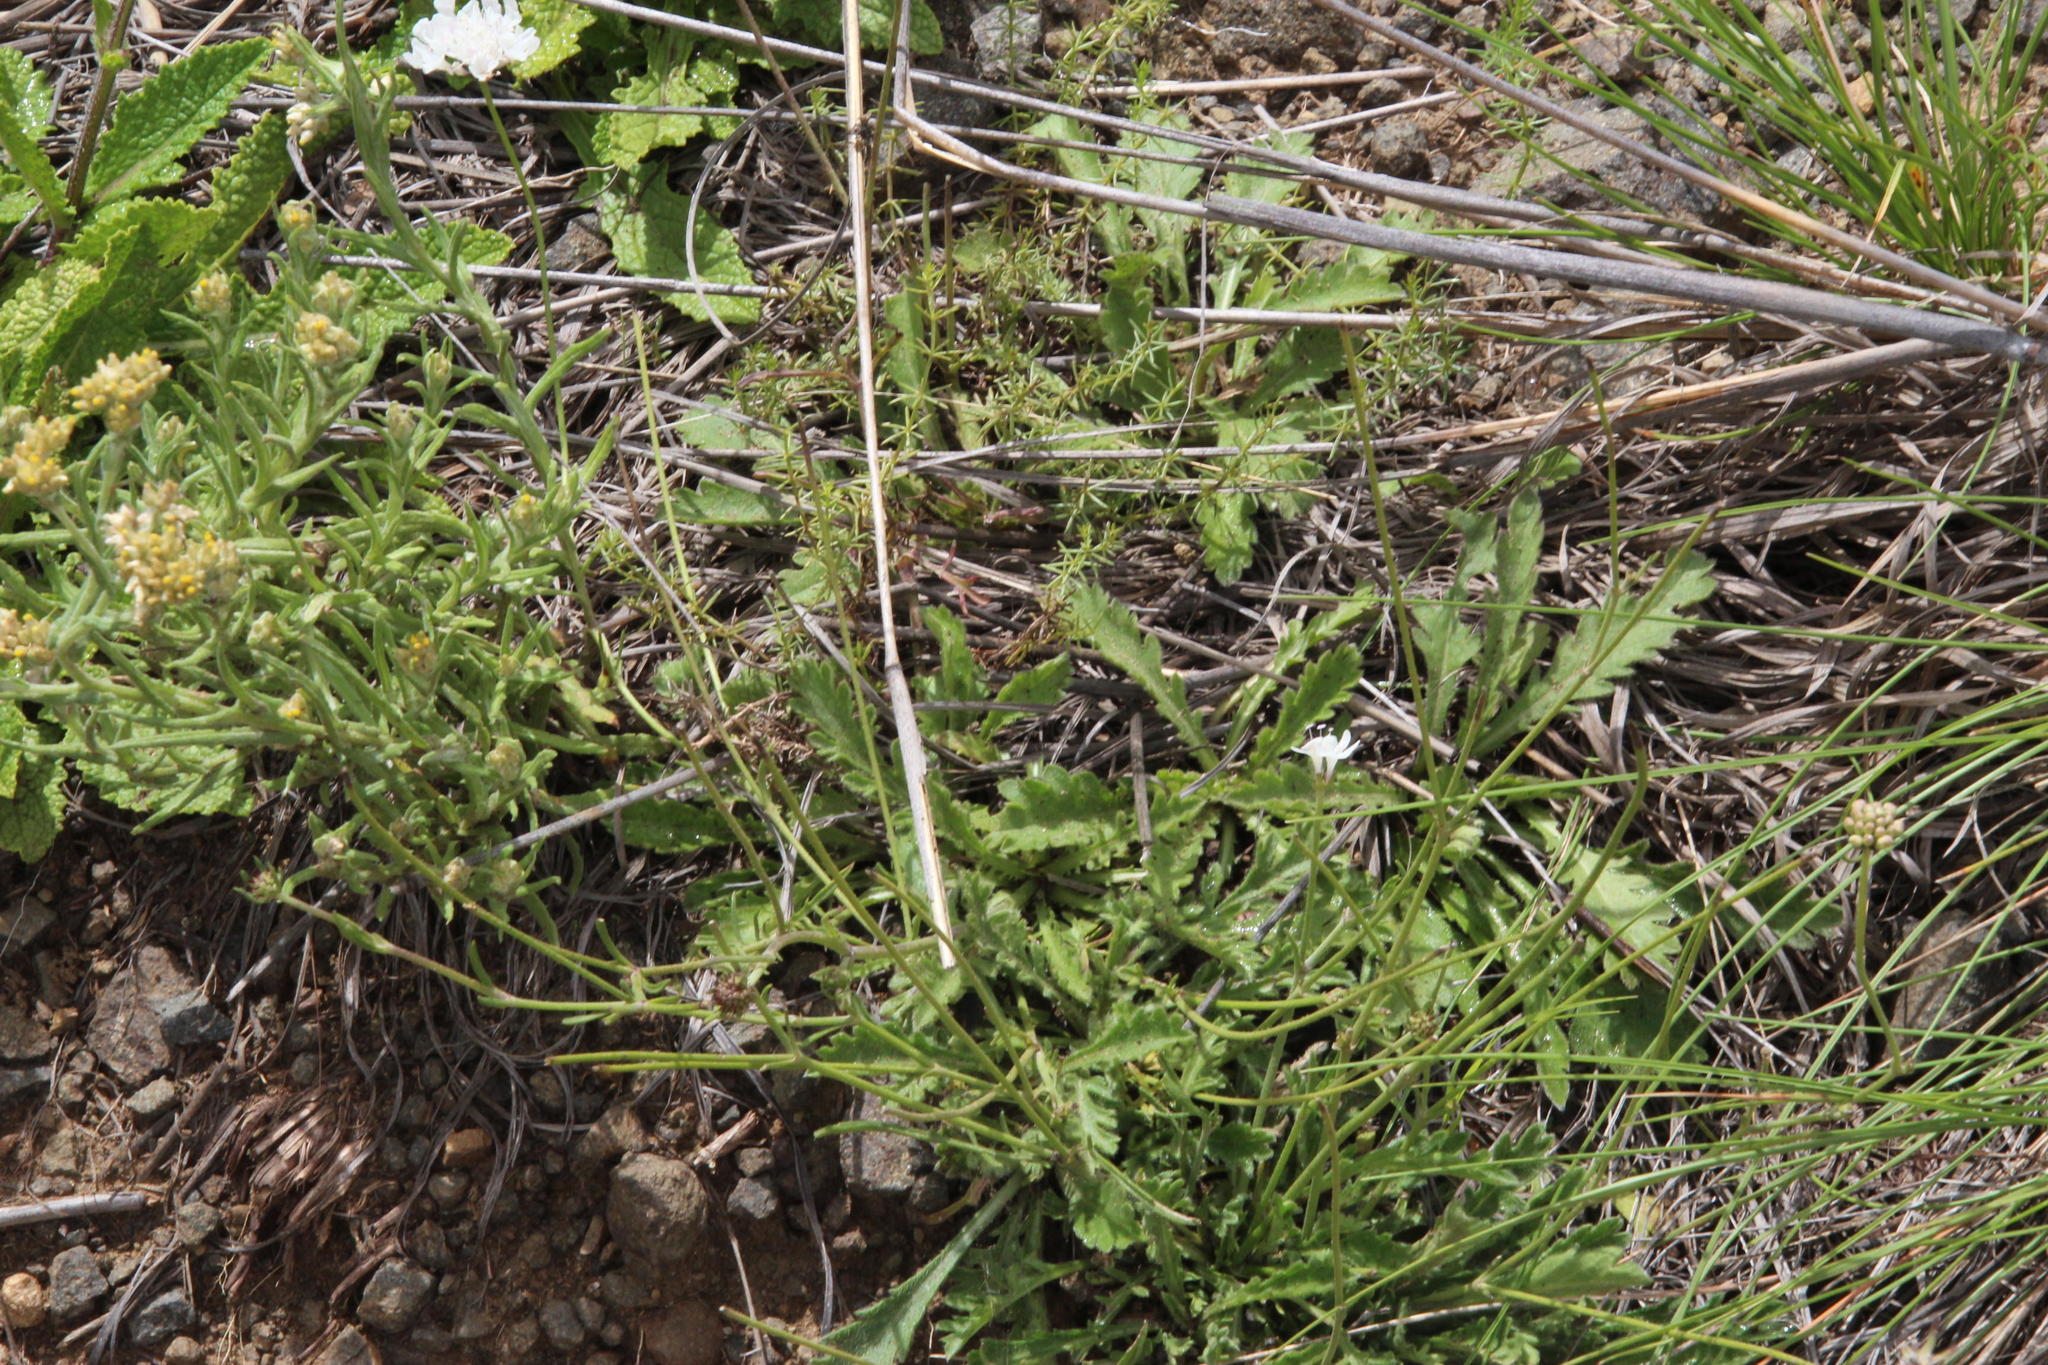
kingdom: Plantae
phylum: Tracheophyta
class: Magnoliopsida
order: Dipsacales
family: Caprifoliaceae
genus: Scabiosa
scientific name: Scabiosa columbaria
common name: Small scabious
